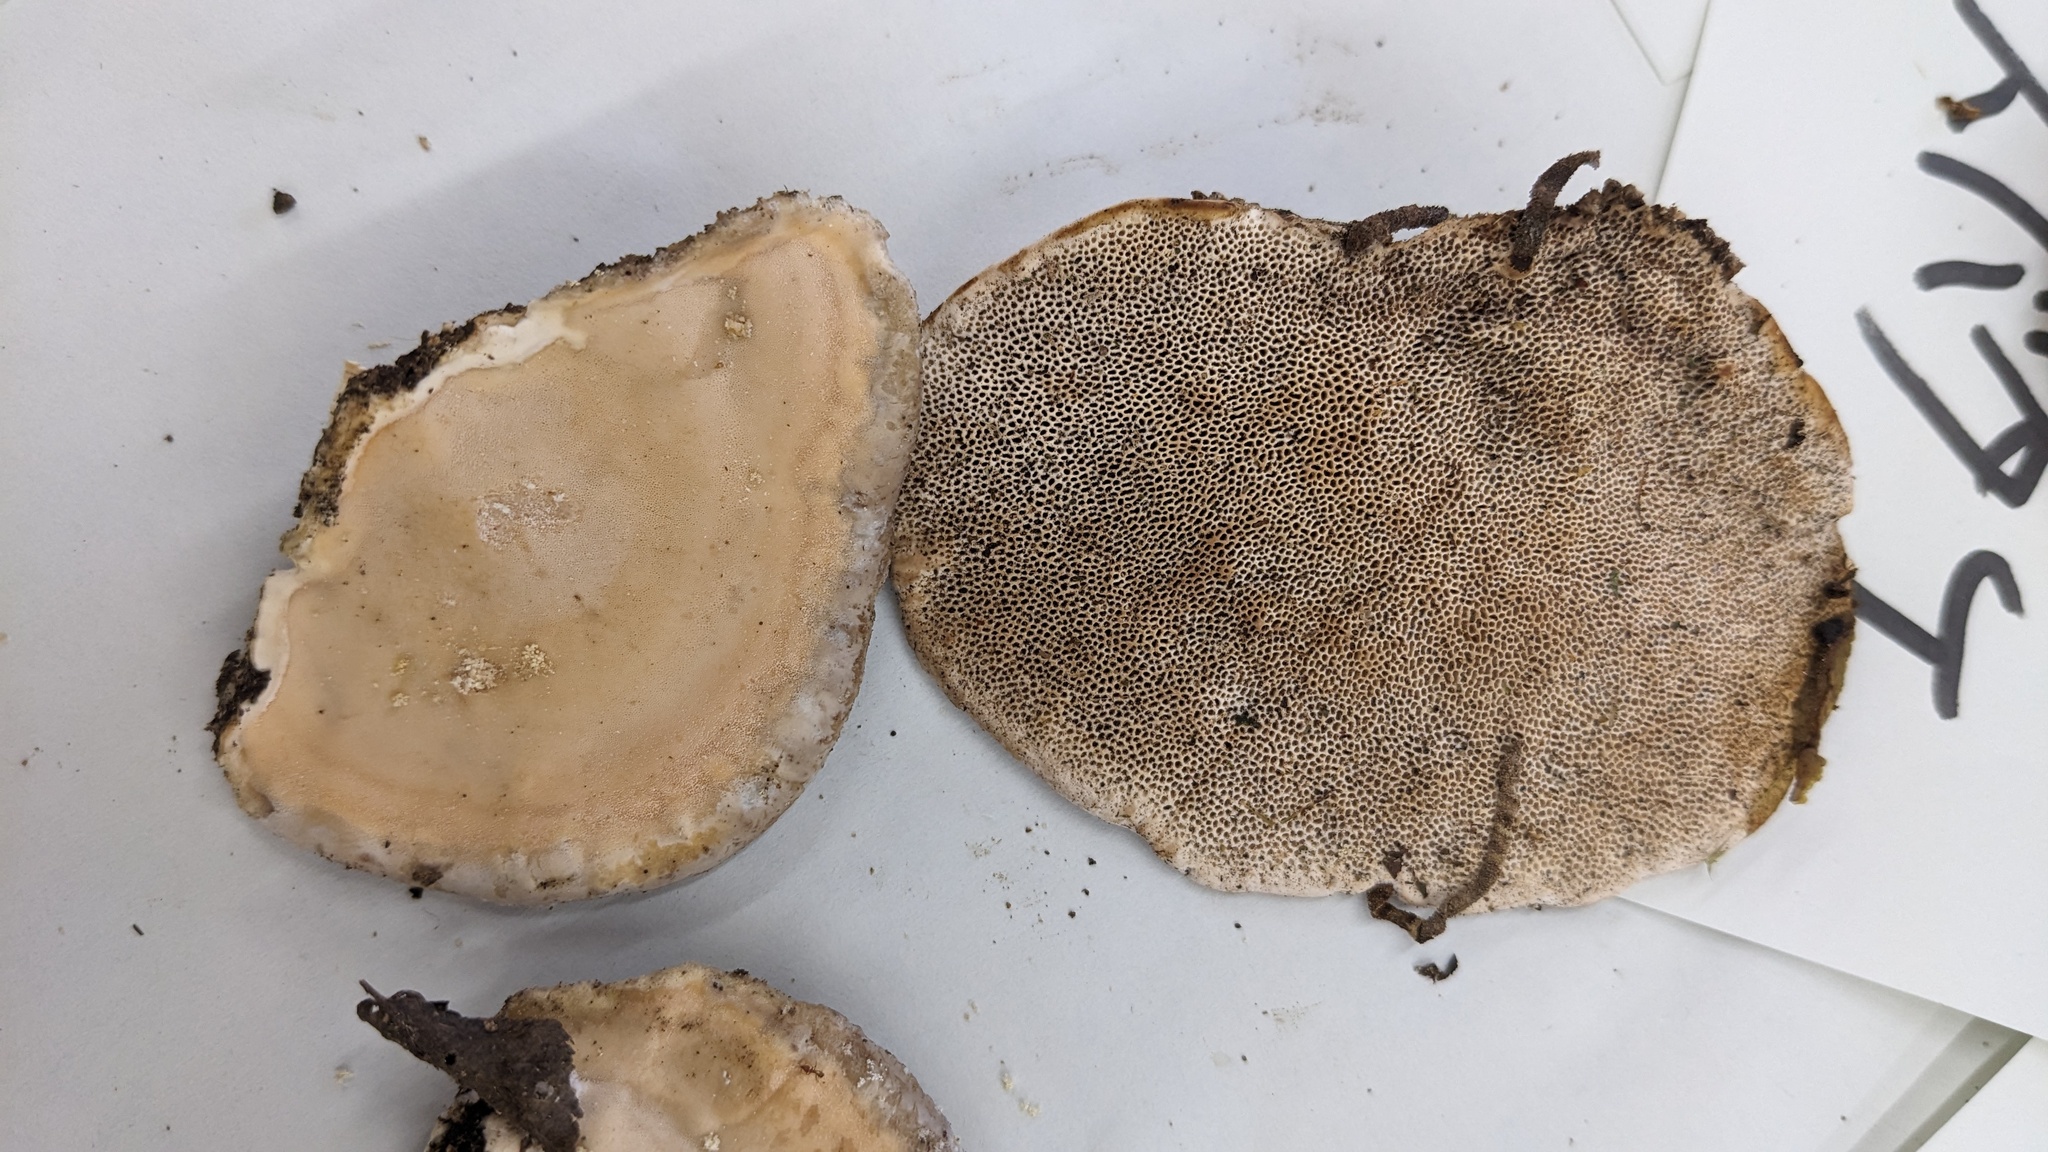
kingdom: Fungi
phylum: Basidiomycota
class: Agaricomycetes
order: Polyporales
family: Fomitopsidaceae
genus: Fomitopsis
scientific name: Fomitopsis
